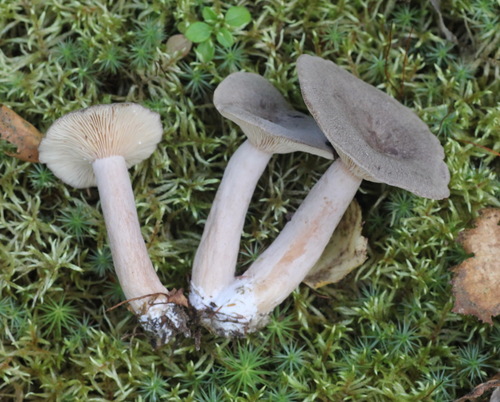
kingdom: Fungi
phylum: Basidiomycota
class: Agaricomycetes
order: Russulales
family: Russulaceae
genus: Lactarius
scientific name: Lactarius mammosus
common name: Pap milkcap
